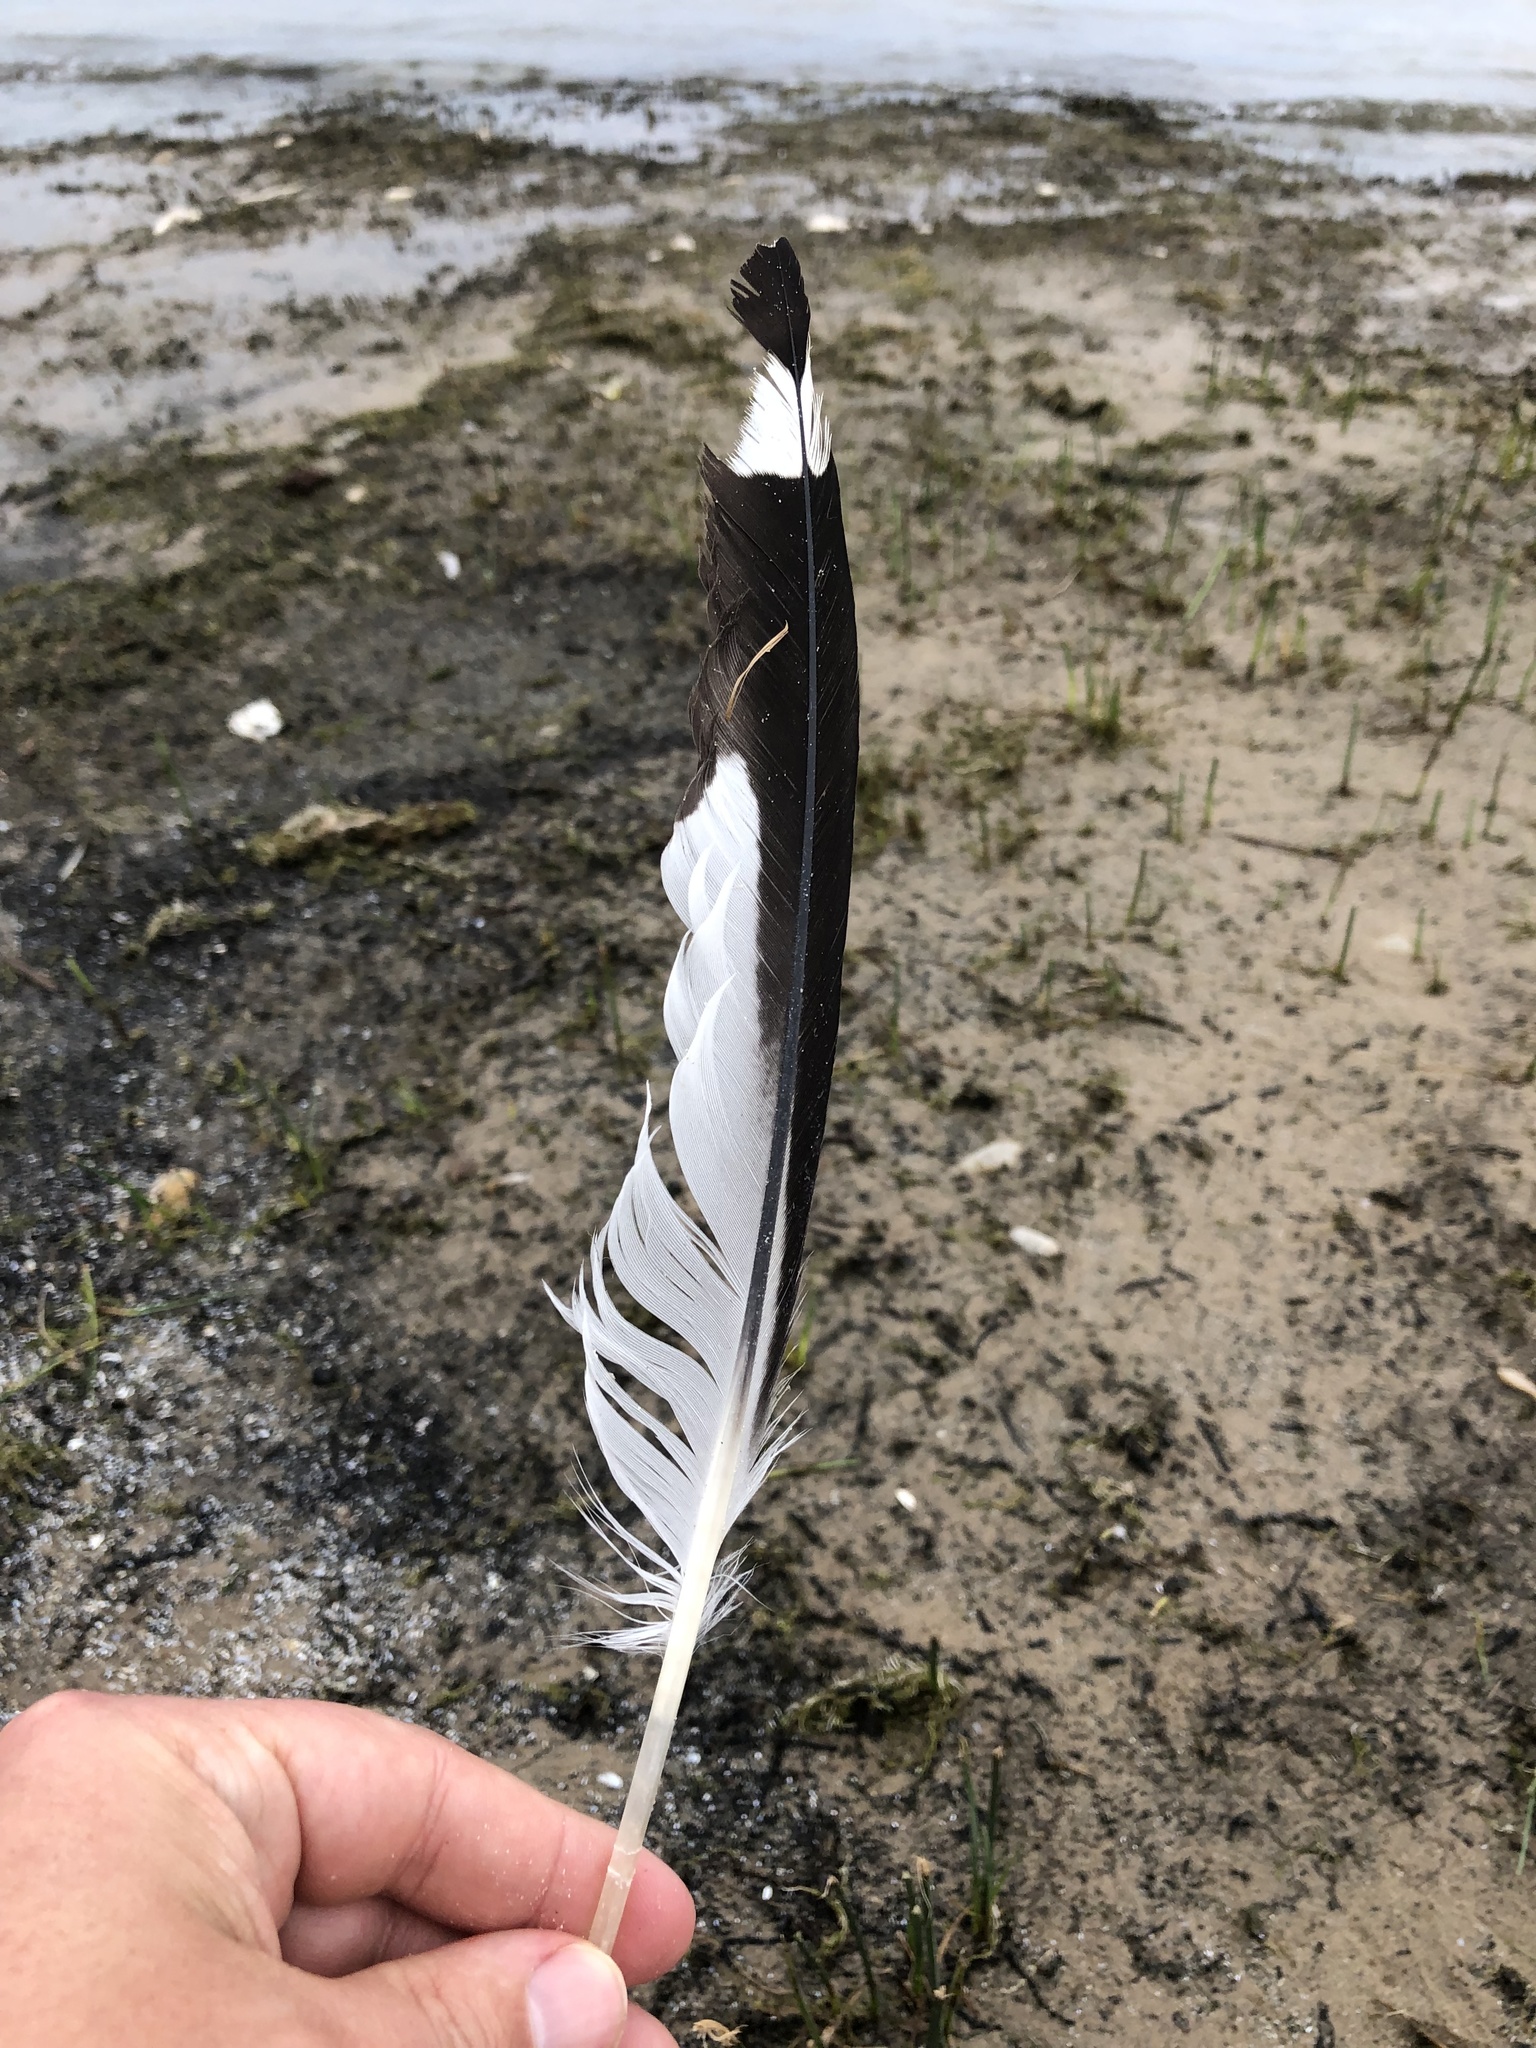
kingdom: Animalia
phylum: Chordata
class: Aves
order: Charadriiformes
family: Laridae
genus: Larus
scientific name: Larus delawarensis
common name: Ring-billed gull
